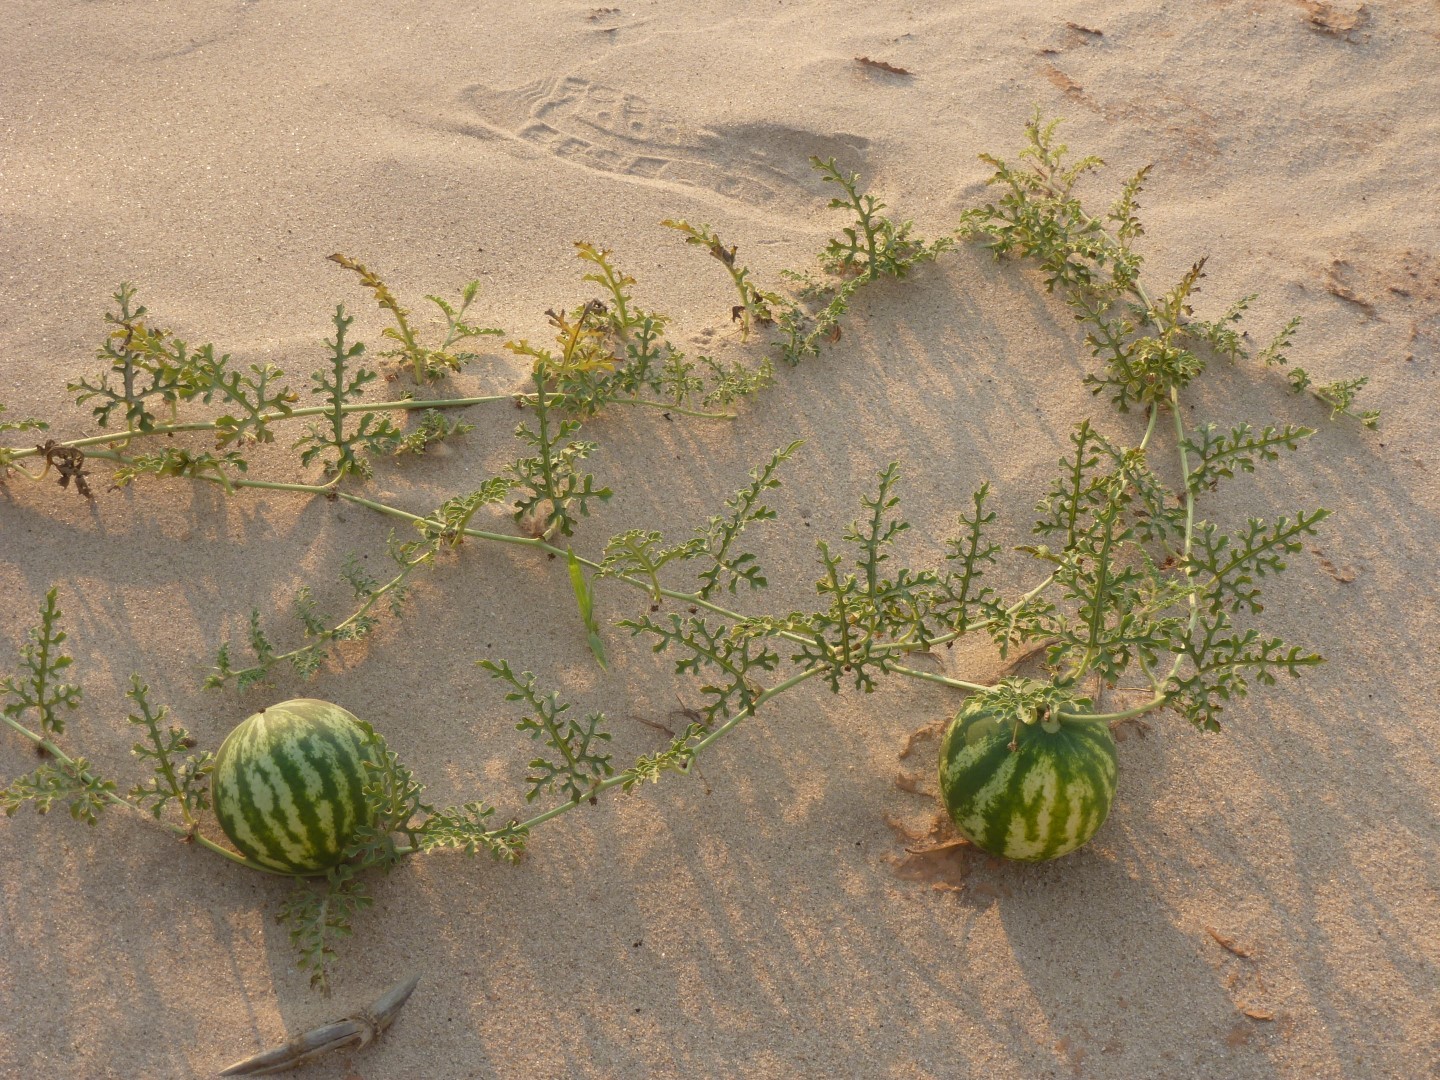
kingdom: Plantae
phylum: Tracheophyta
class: Magnoliopsida
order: Cucurbitales
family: Cucurbitaceae
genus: Citrullus
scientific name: Citrullus mucosospermus
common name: West african watermelon
